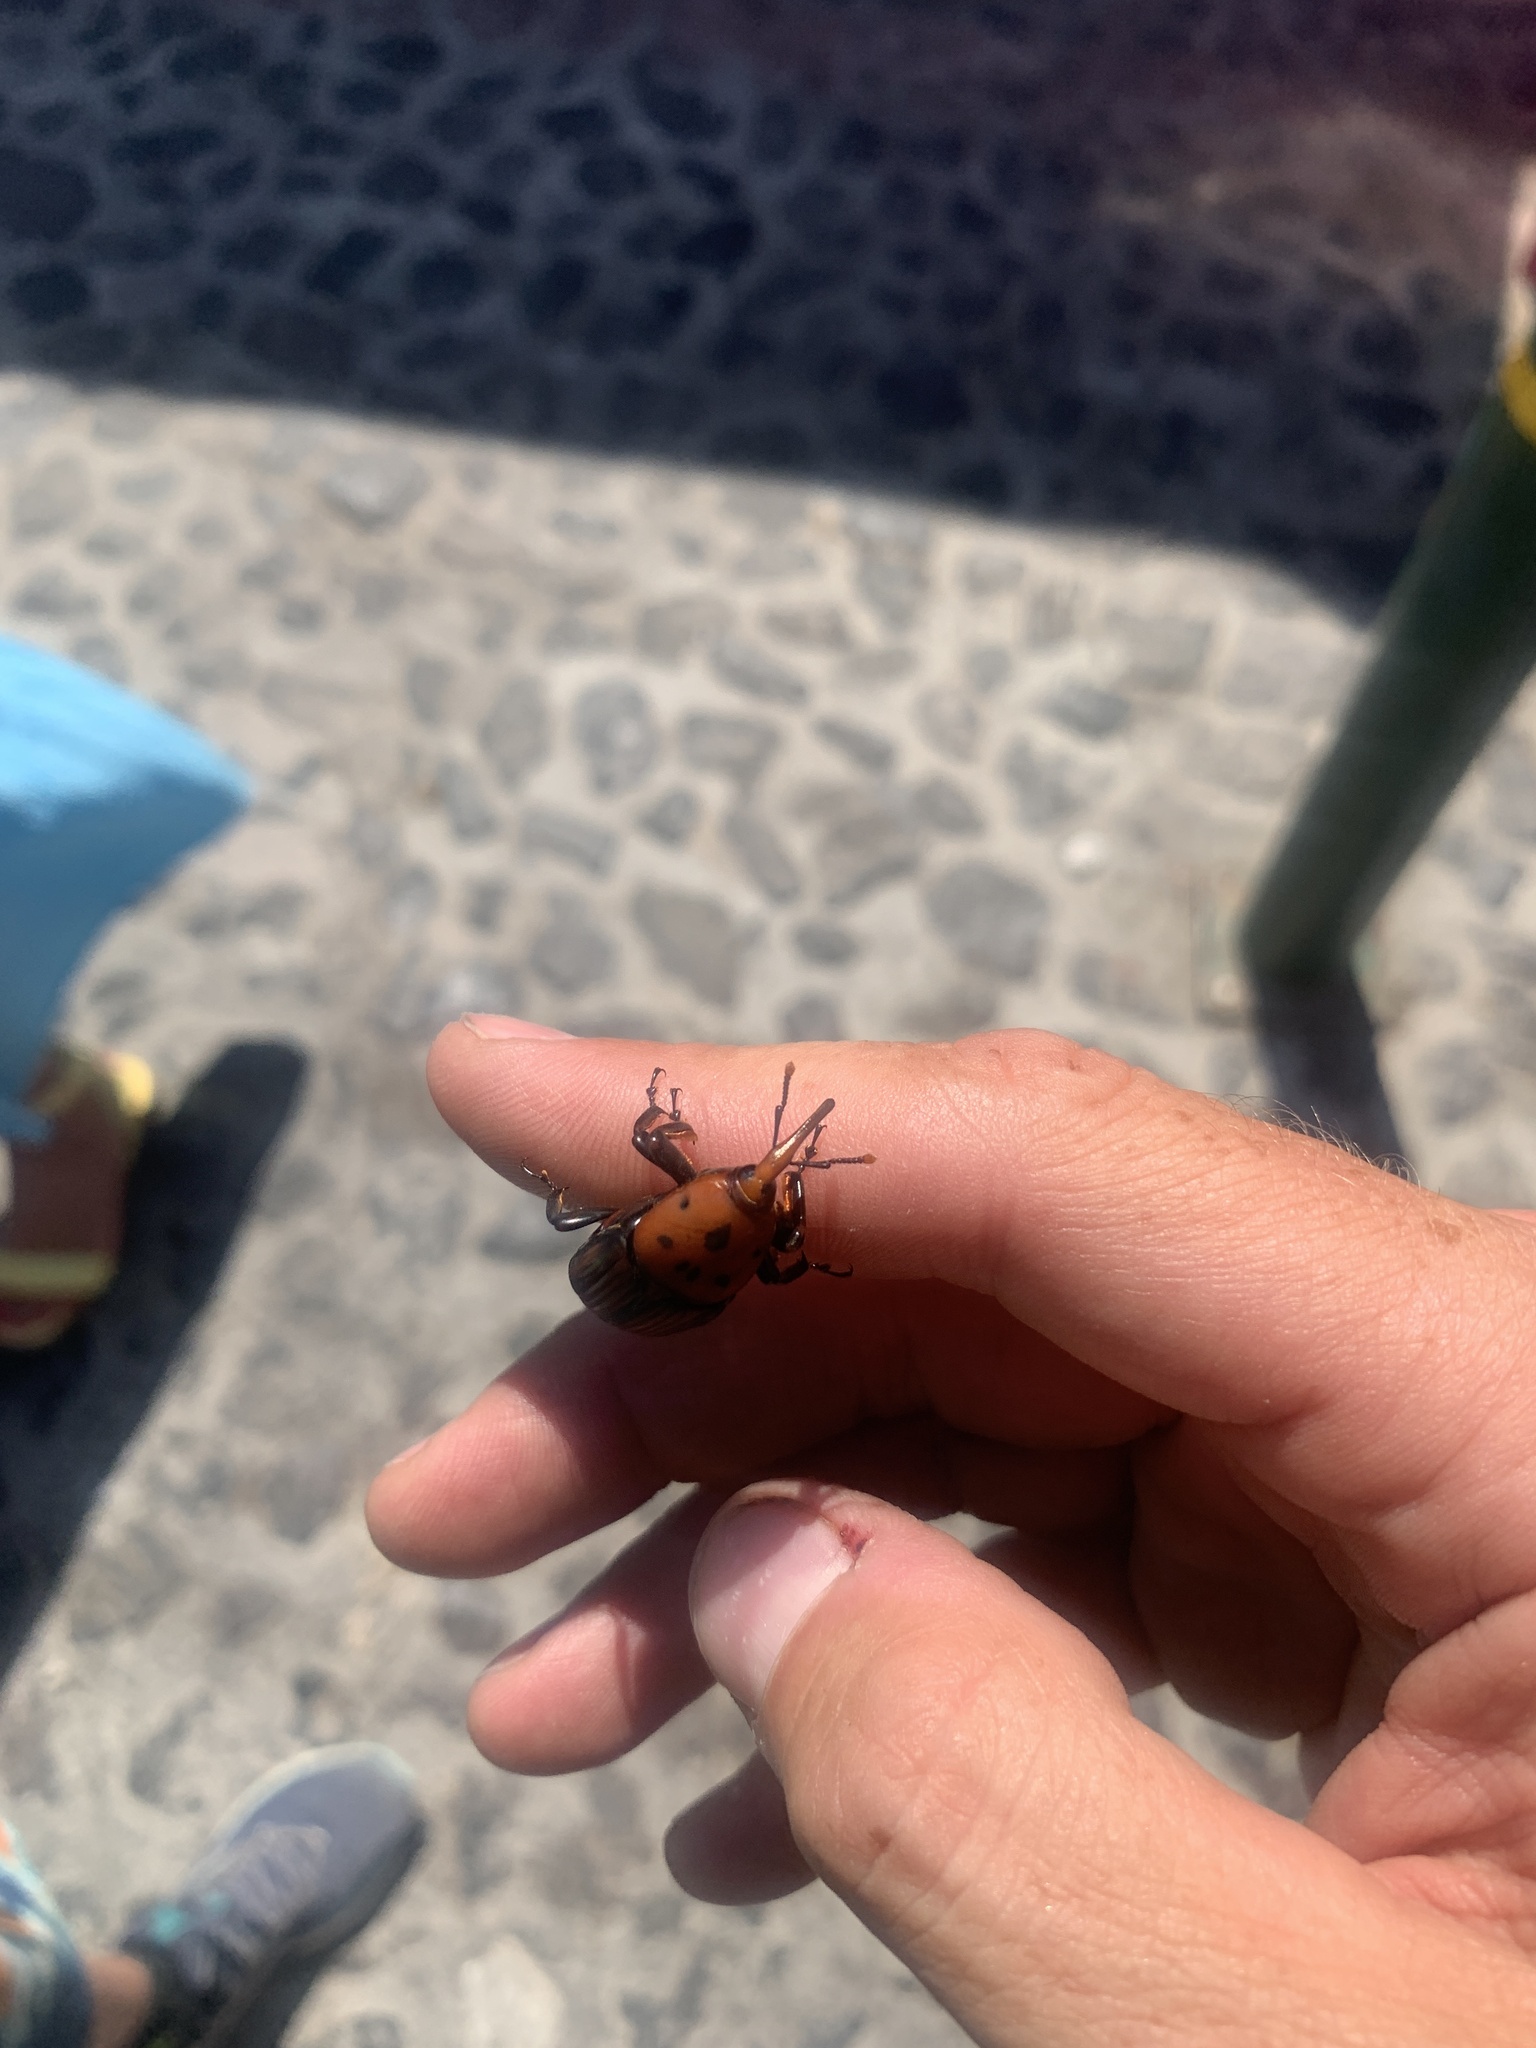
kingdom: Animalia
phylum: Arthropoda
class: Insecta
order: Coleoptera
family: Dryophthoridae
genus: Rhynchophorus
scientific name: Rhynchophorus ferrugineus
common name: Red palm weevil
